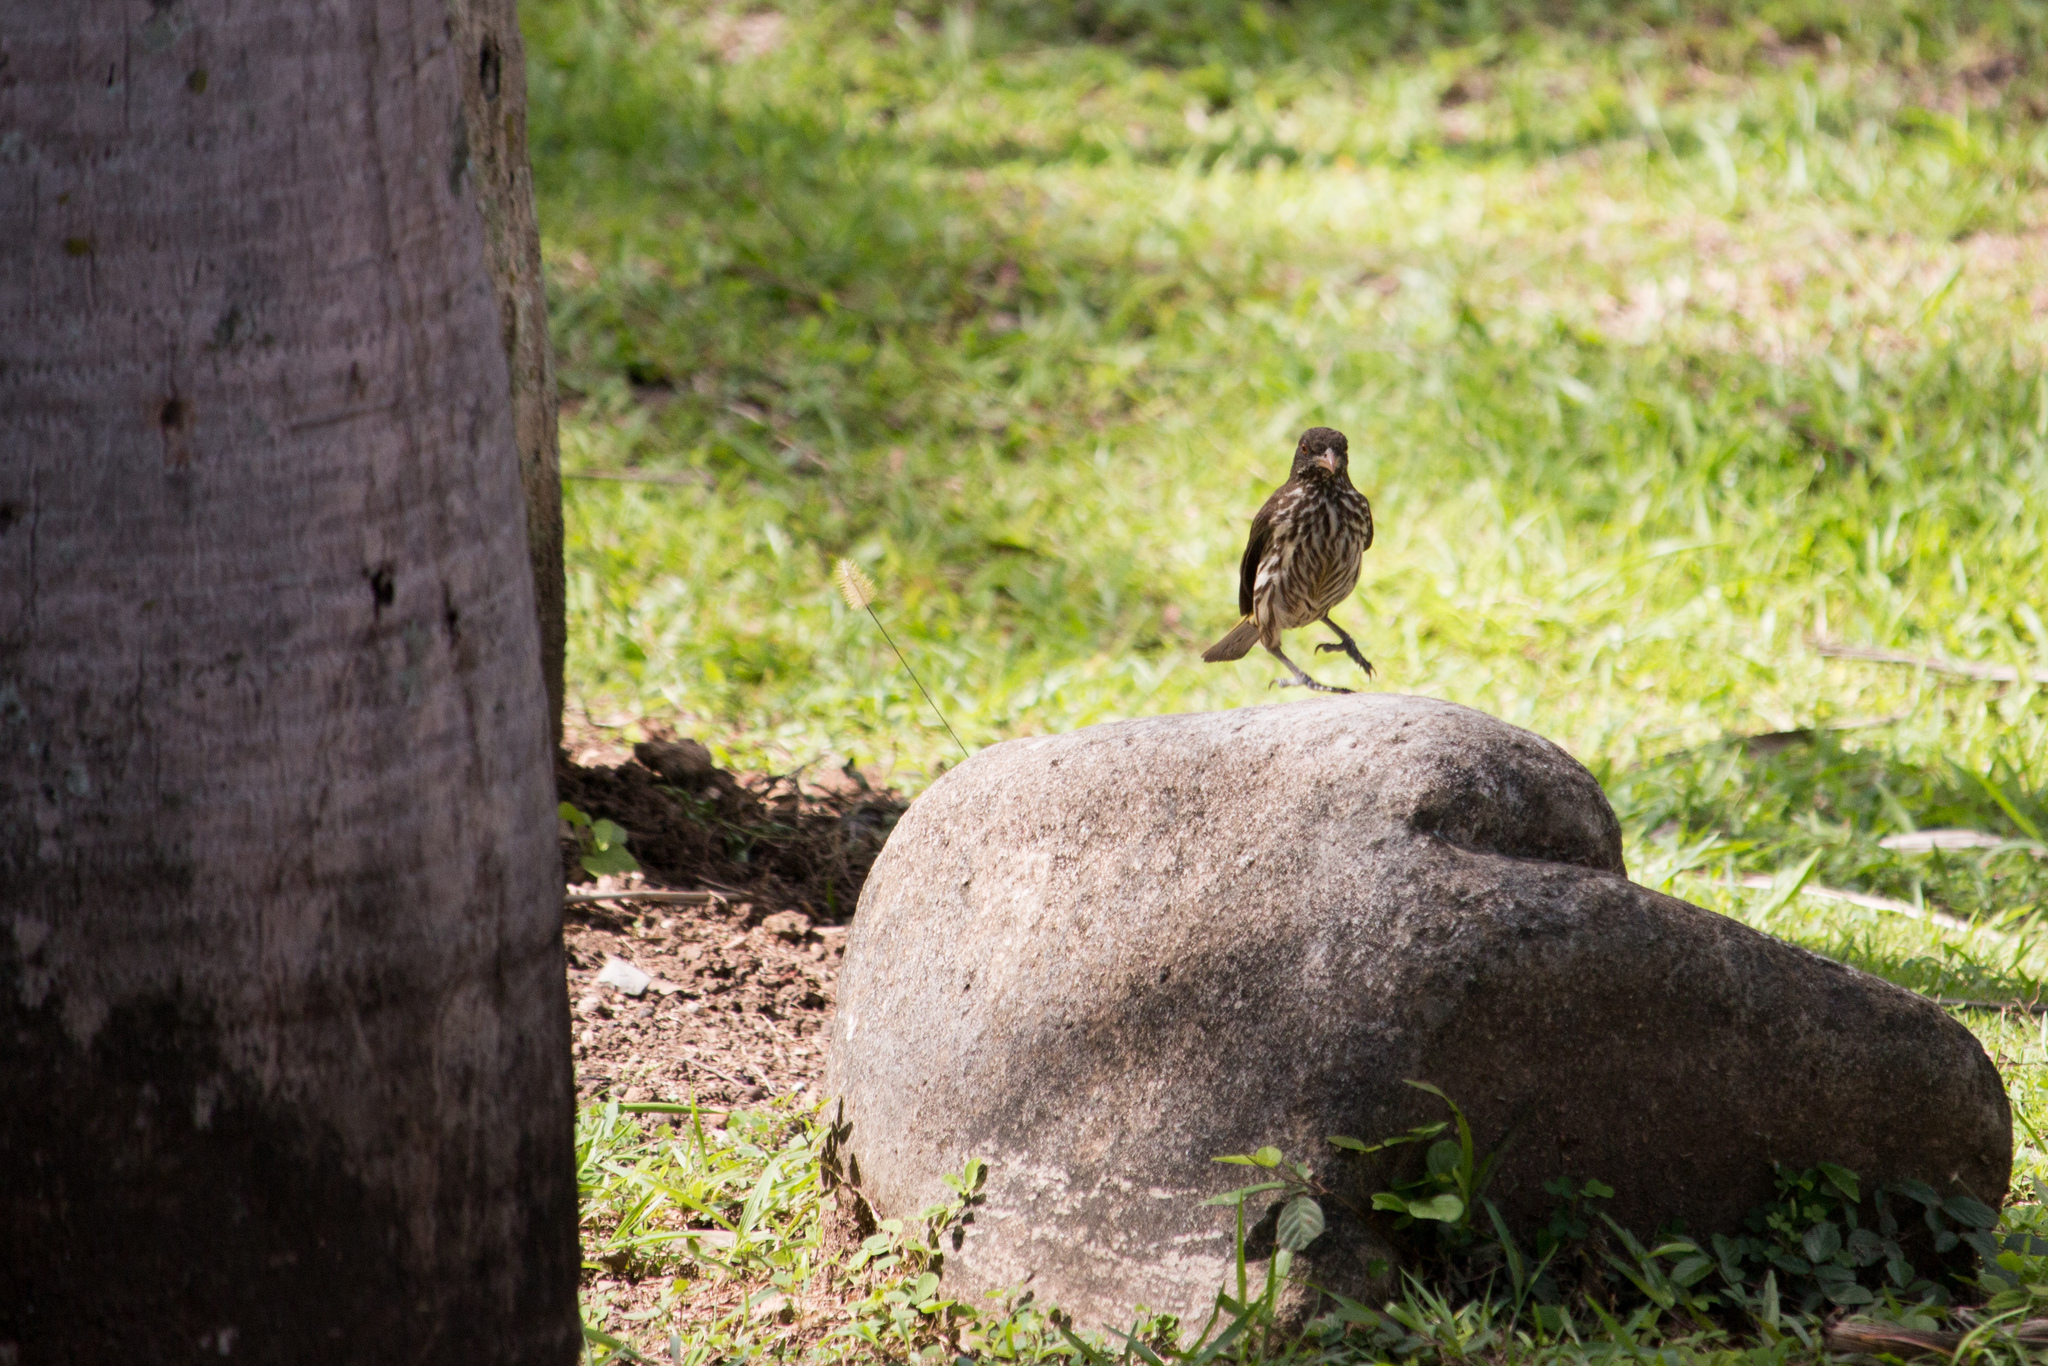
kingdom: Animalia
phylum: Chordata
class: Aves
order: Passeriformes
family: Dulidae
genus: Dulus
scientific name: Dulus dominicus
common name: Palmchat
